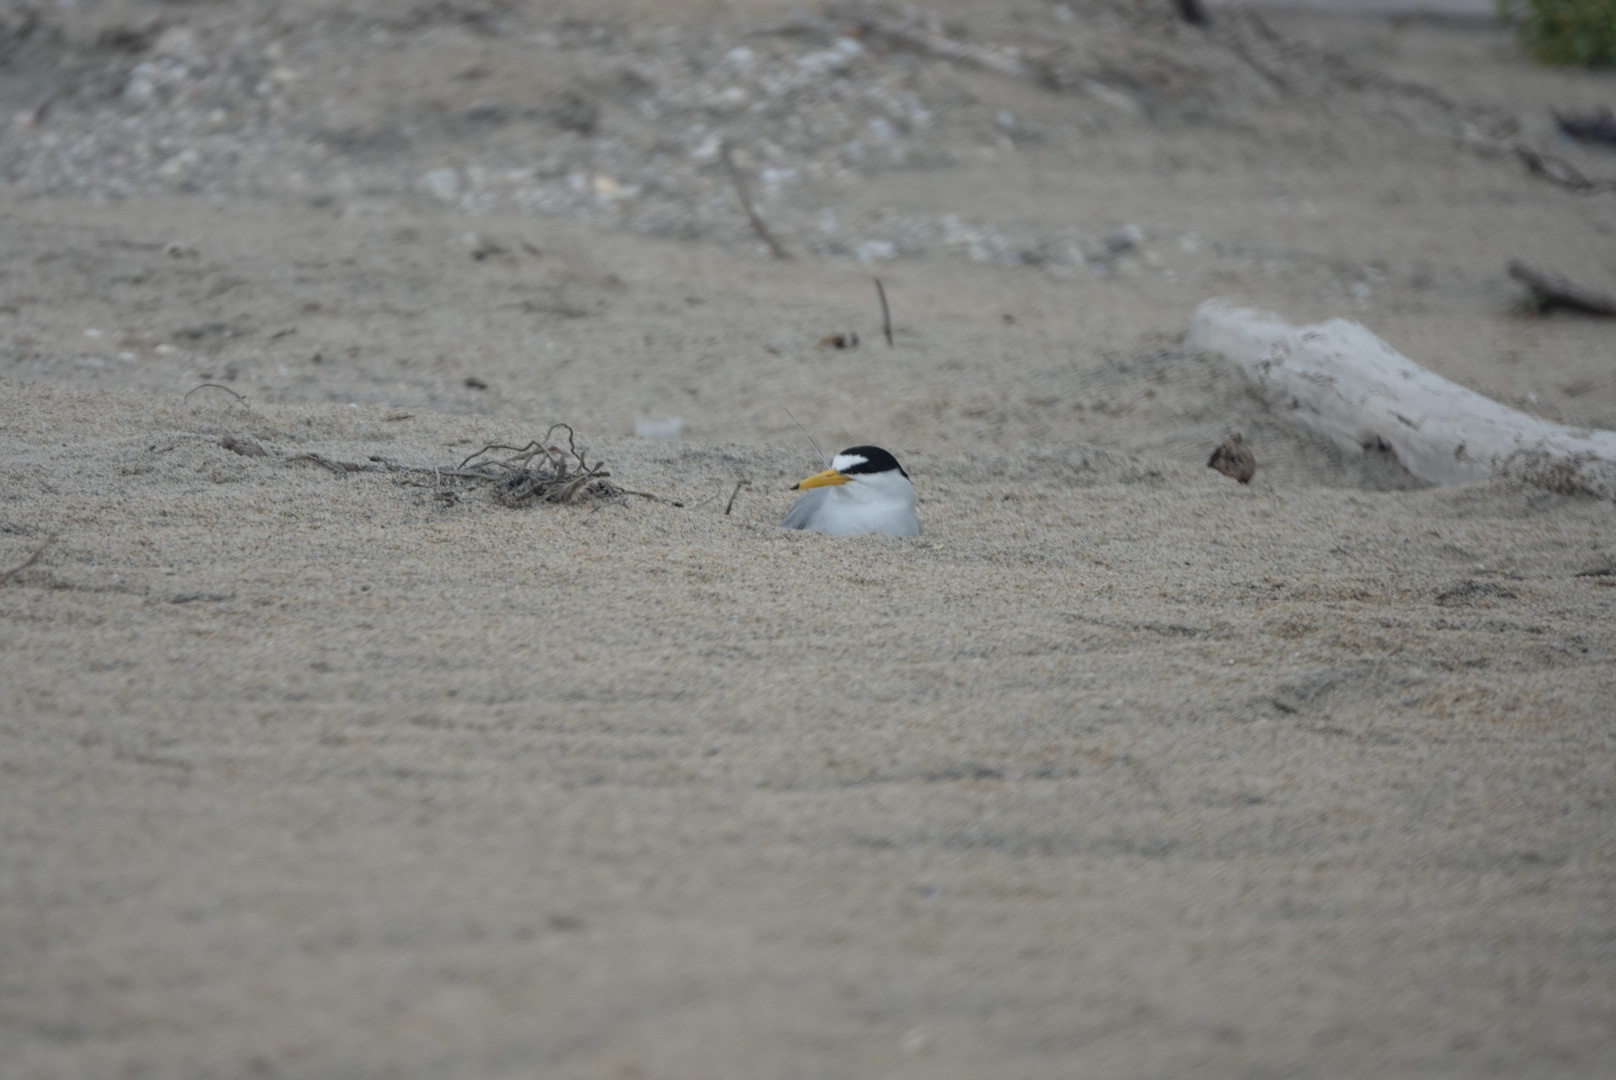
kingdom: Animalia
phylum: Chordata
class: Aves
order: Charadriiformes
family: Laridae
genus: Sternula
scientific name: Sternula antillarum
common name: Least tern
